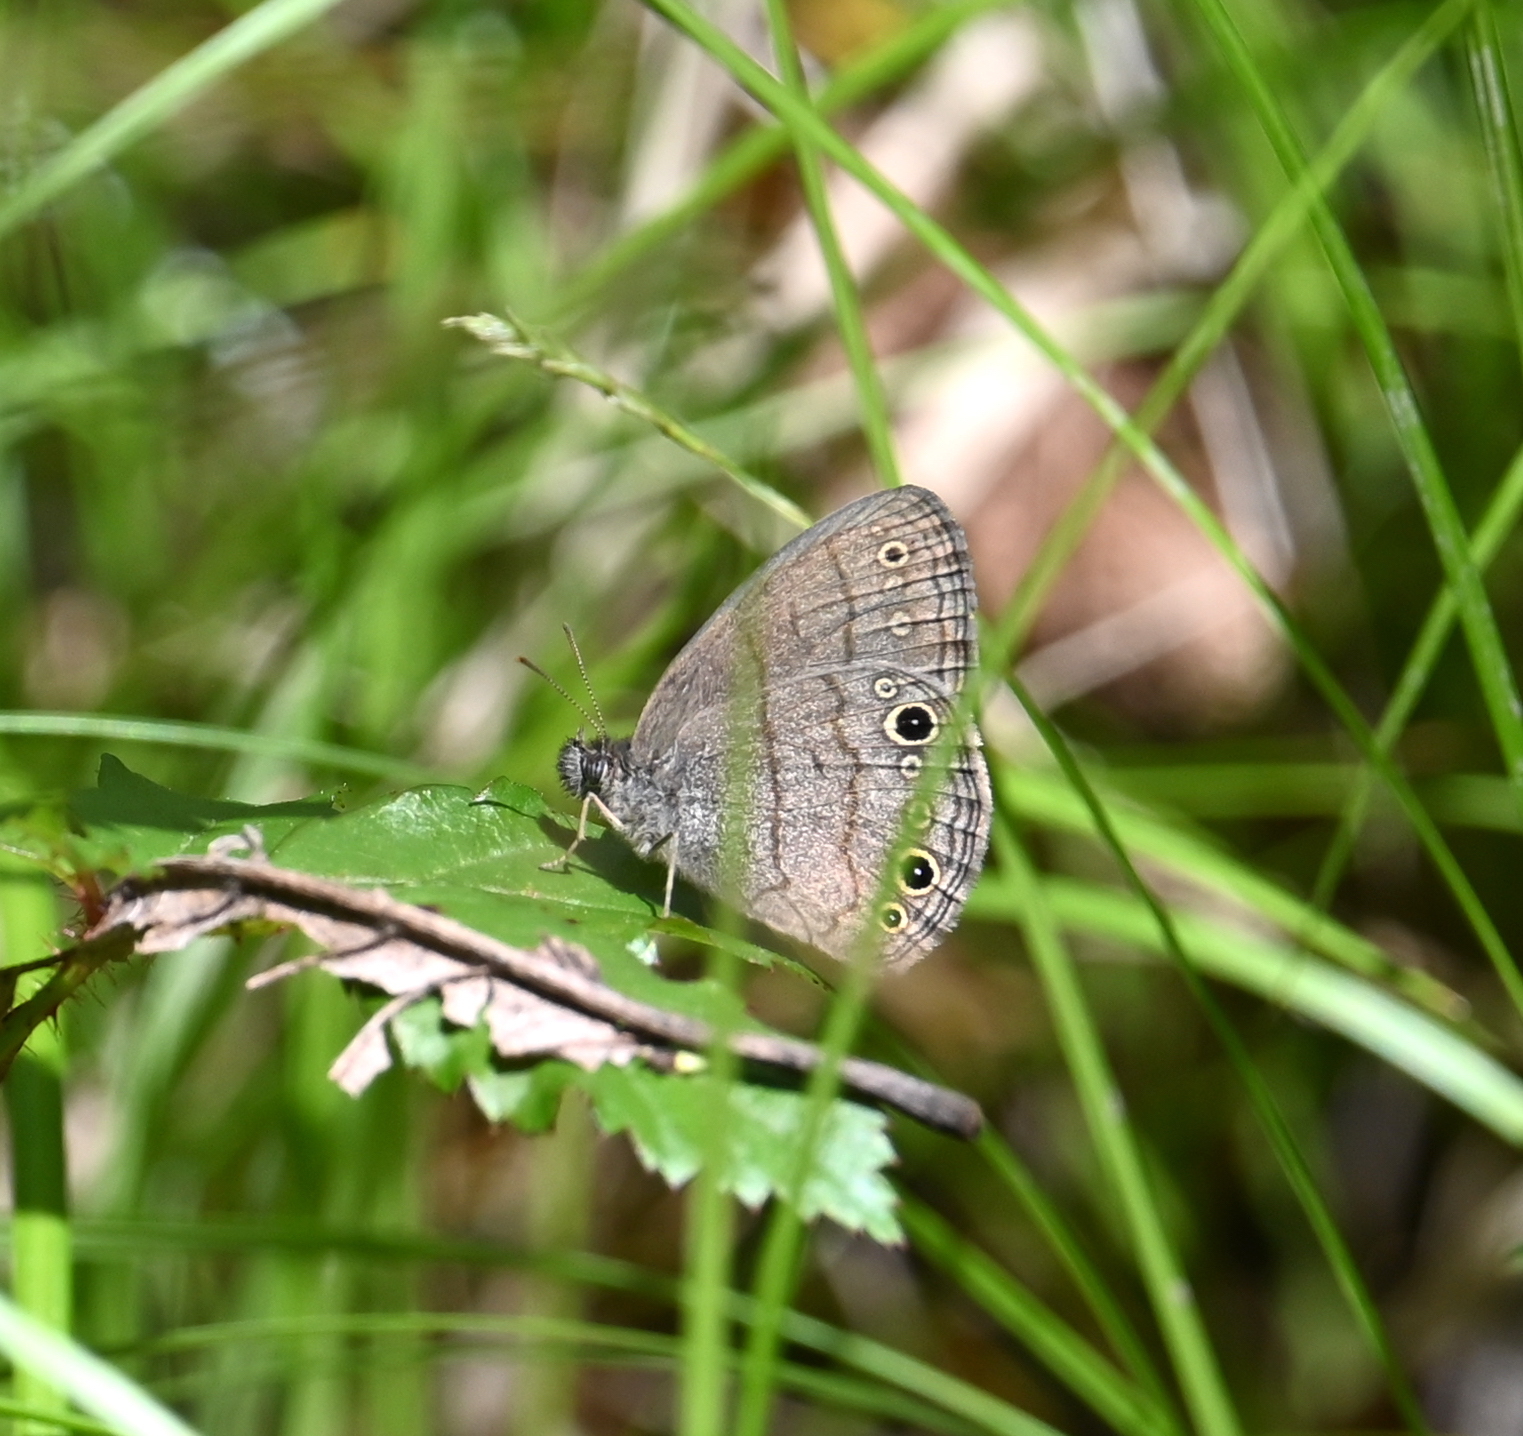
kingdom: Animalia
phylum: Arthropoda
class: Insecta
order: Lepidoptera
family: Nymphalidae
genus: Hermeuptychia
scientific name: Hermeuptychia hermes
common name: Hermes satyr
